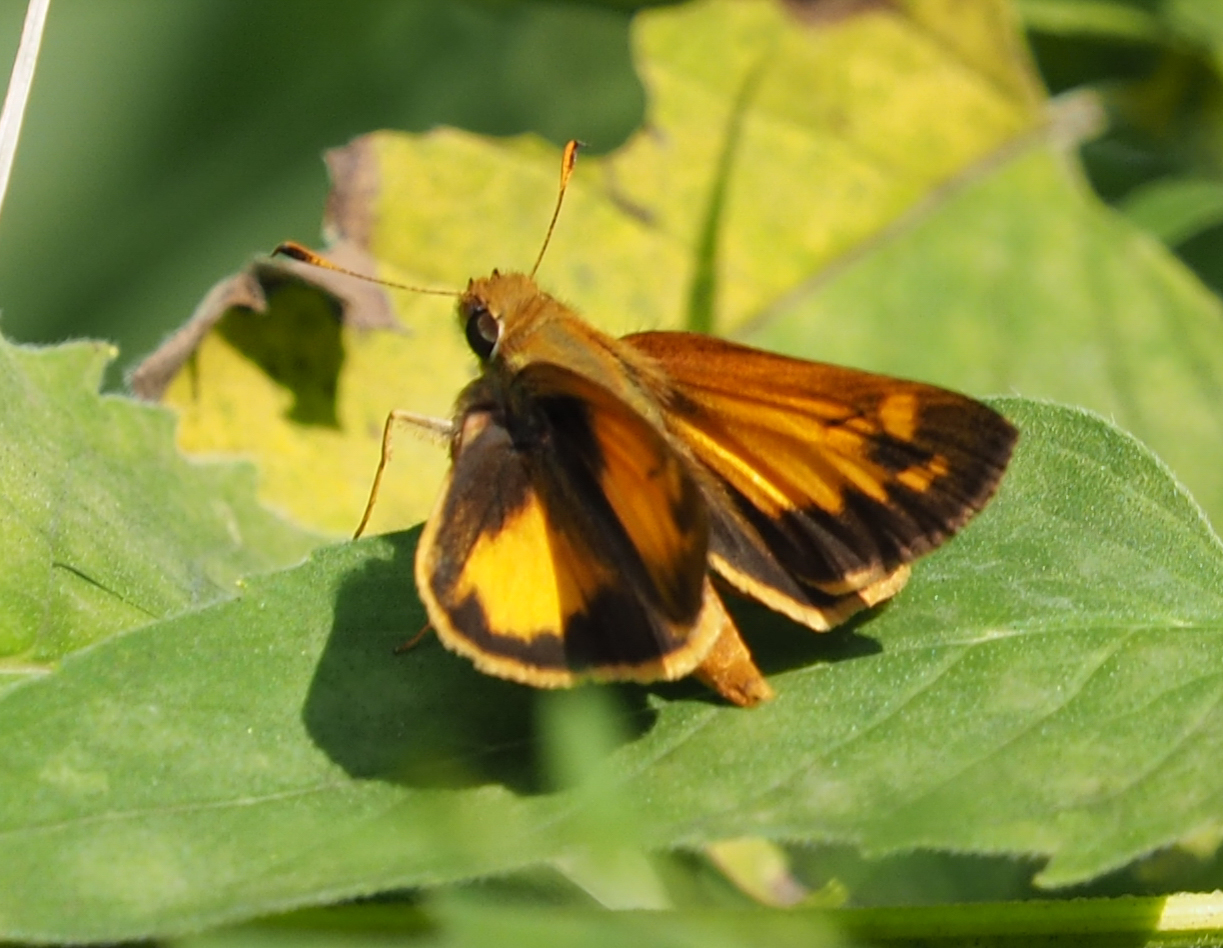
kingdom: Animalia
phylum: Arthropoda
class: Insecta
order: Lepidoptera
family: Hesperiidae
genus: Lon
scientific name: Lon zabulon
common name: Zabulon skipper
